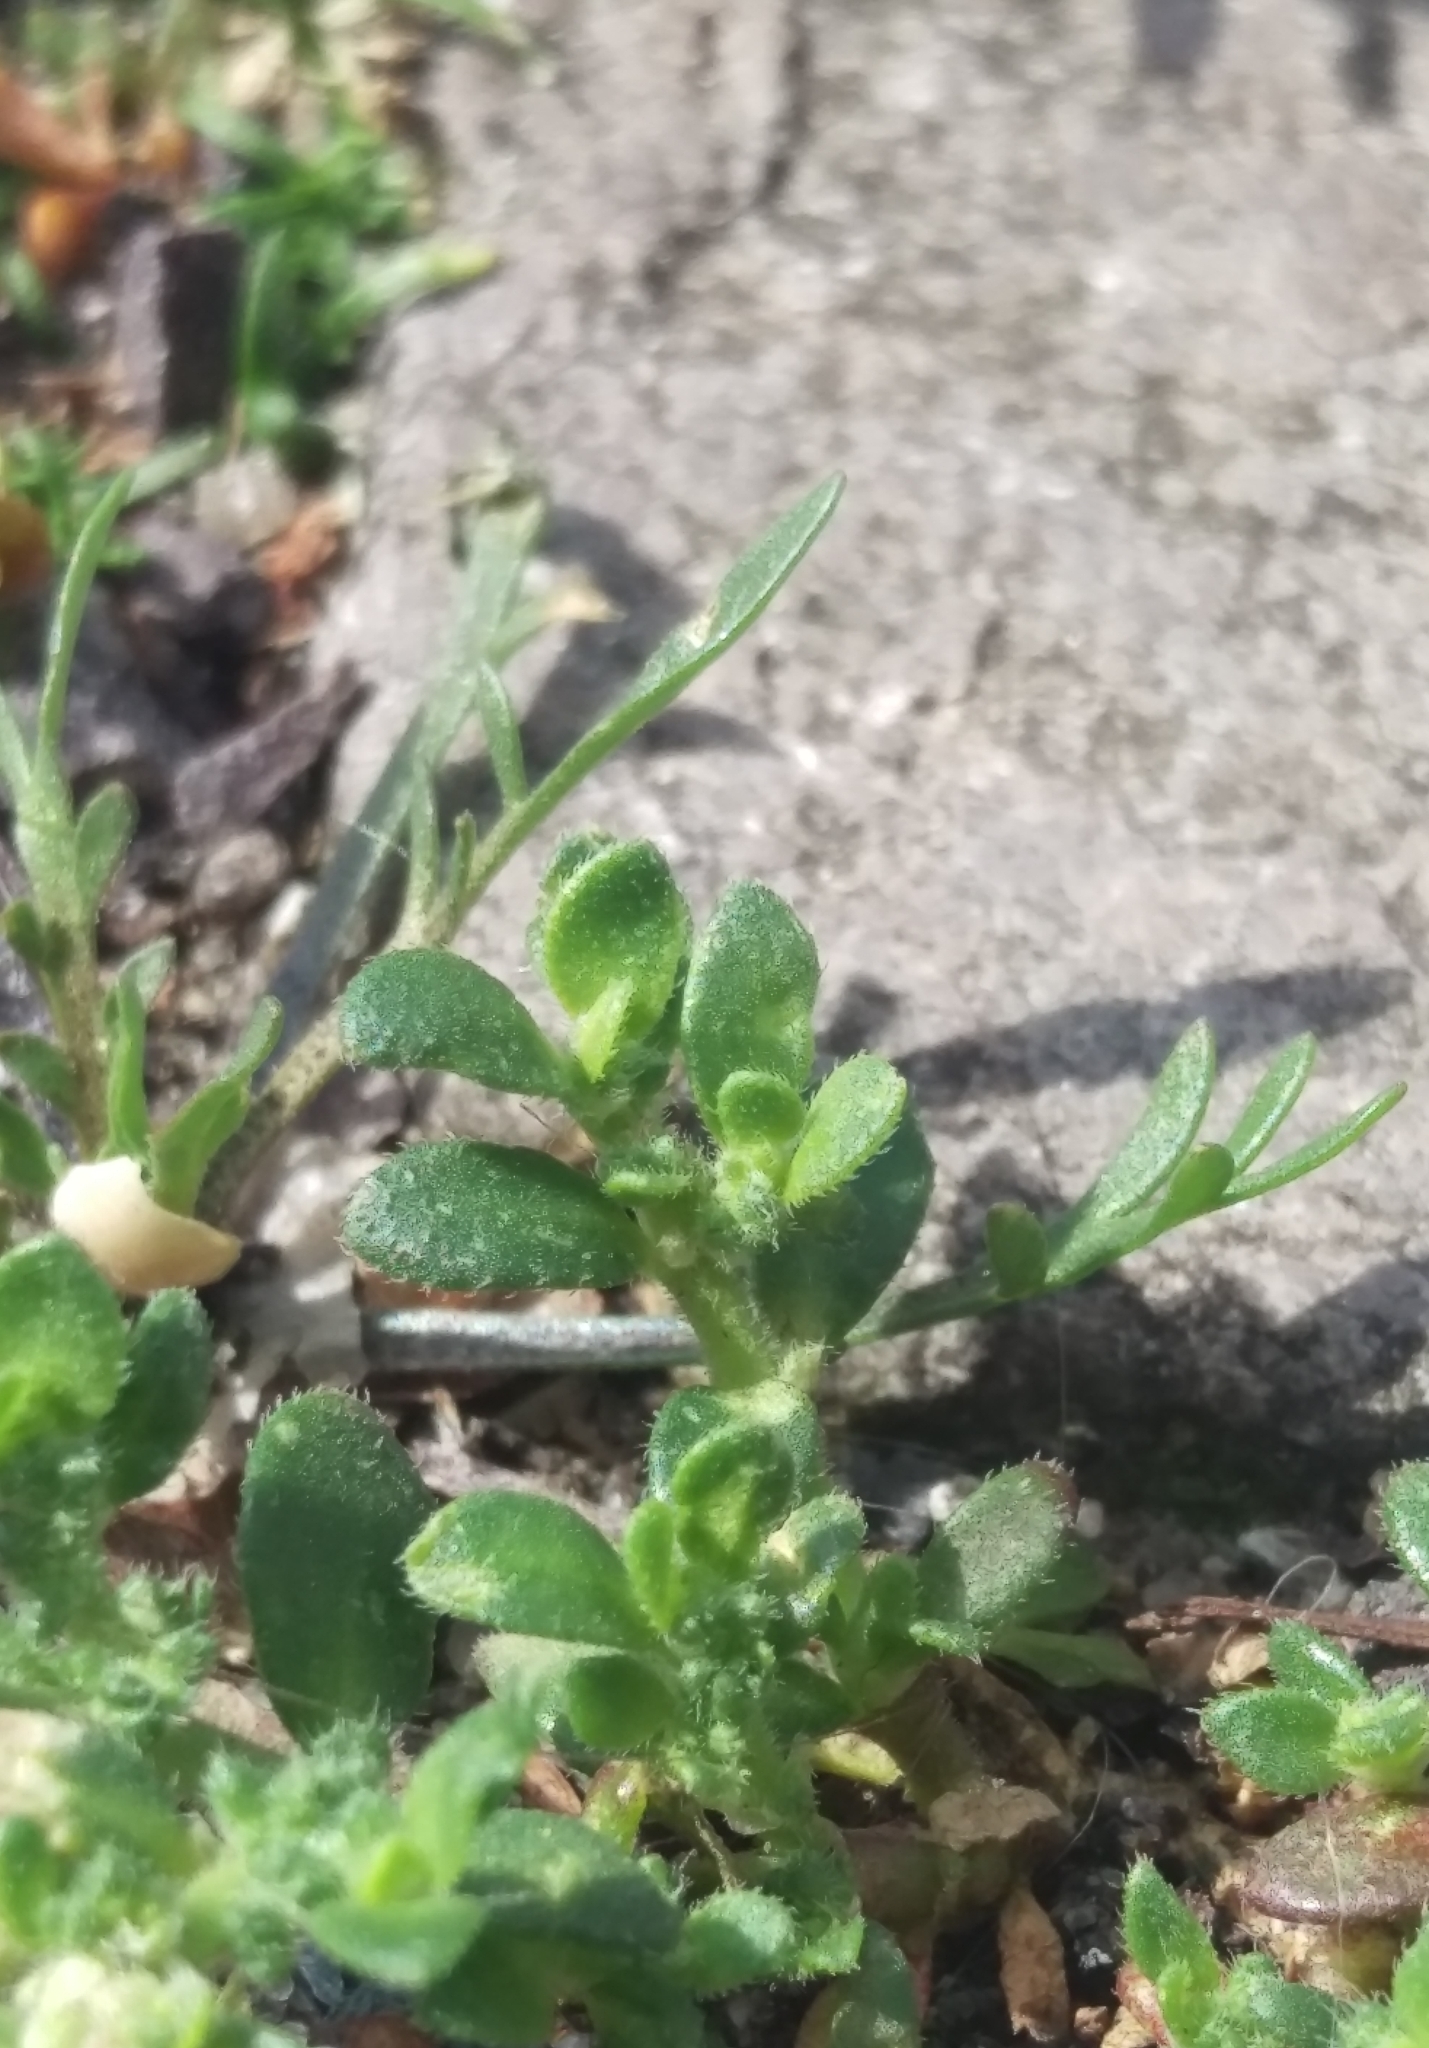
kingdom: Plantae
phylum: Tracheophyta
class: Magnoliopsida
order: Caryophyllales
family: Caryophyllaceae
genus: Herniaria
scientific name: Herniaria hirsuta
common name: Hairy rupturewort
